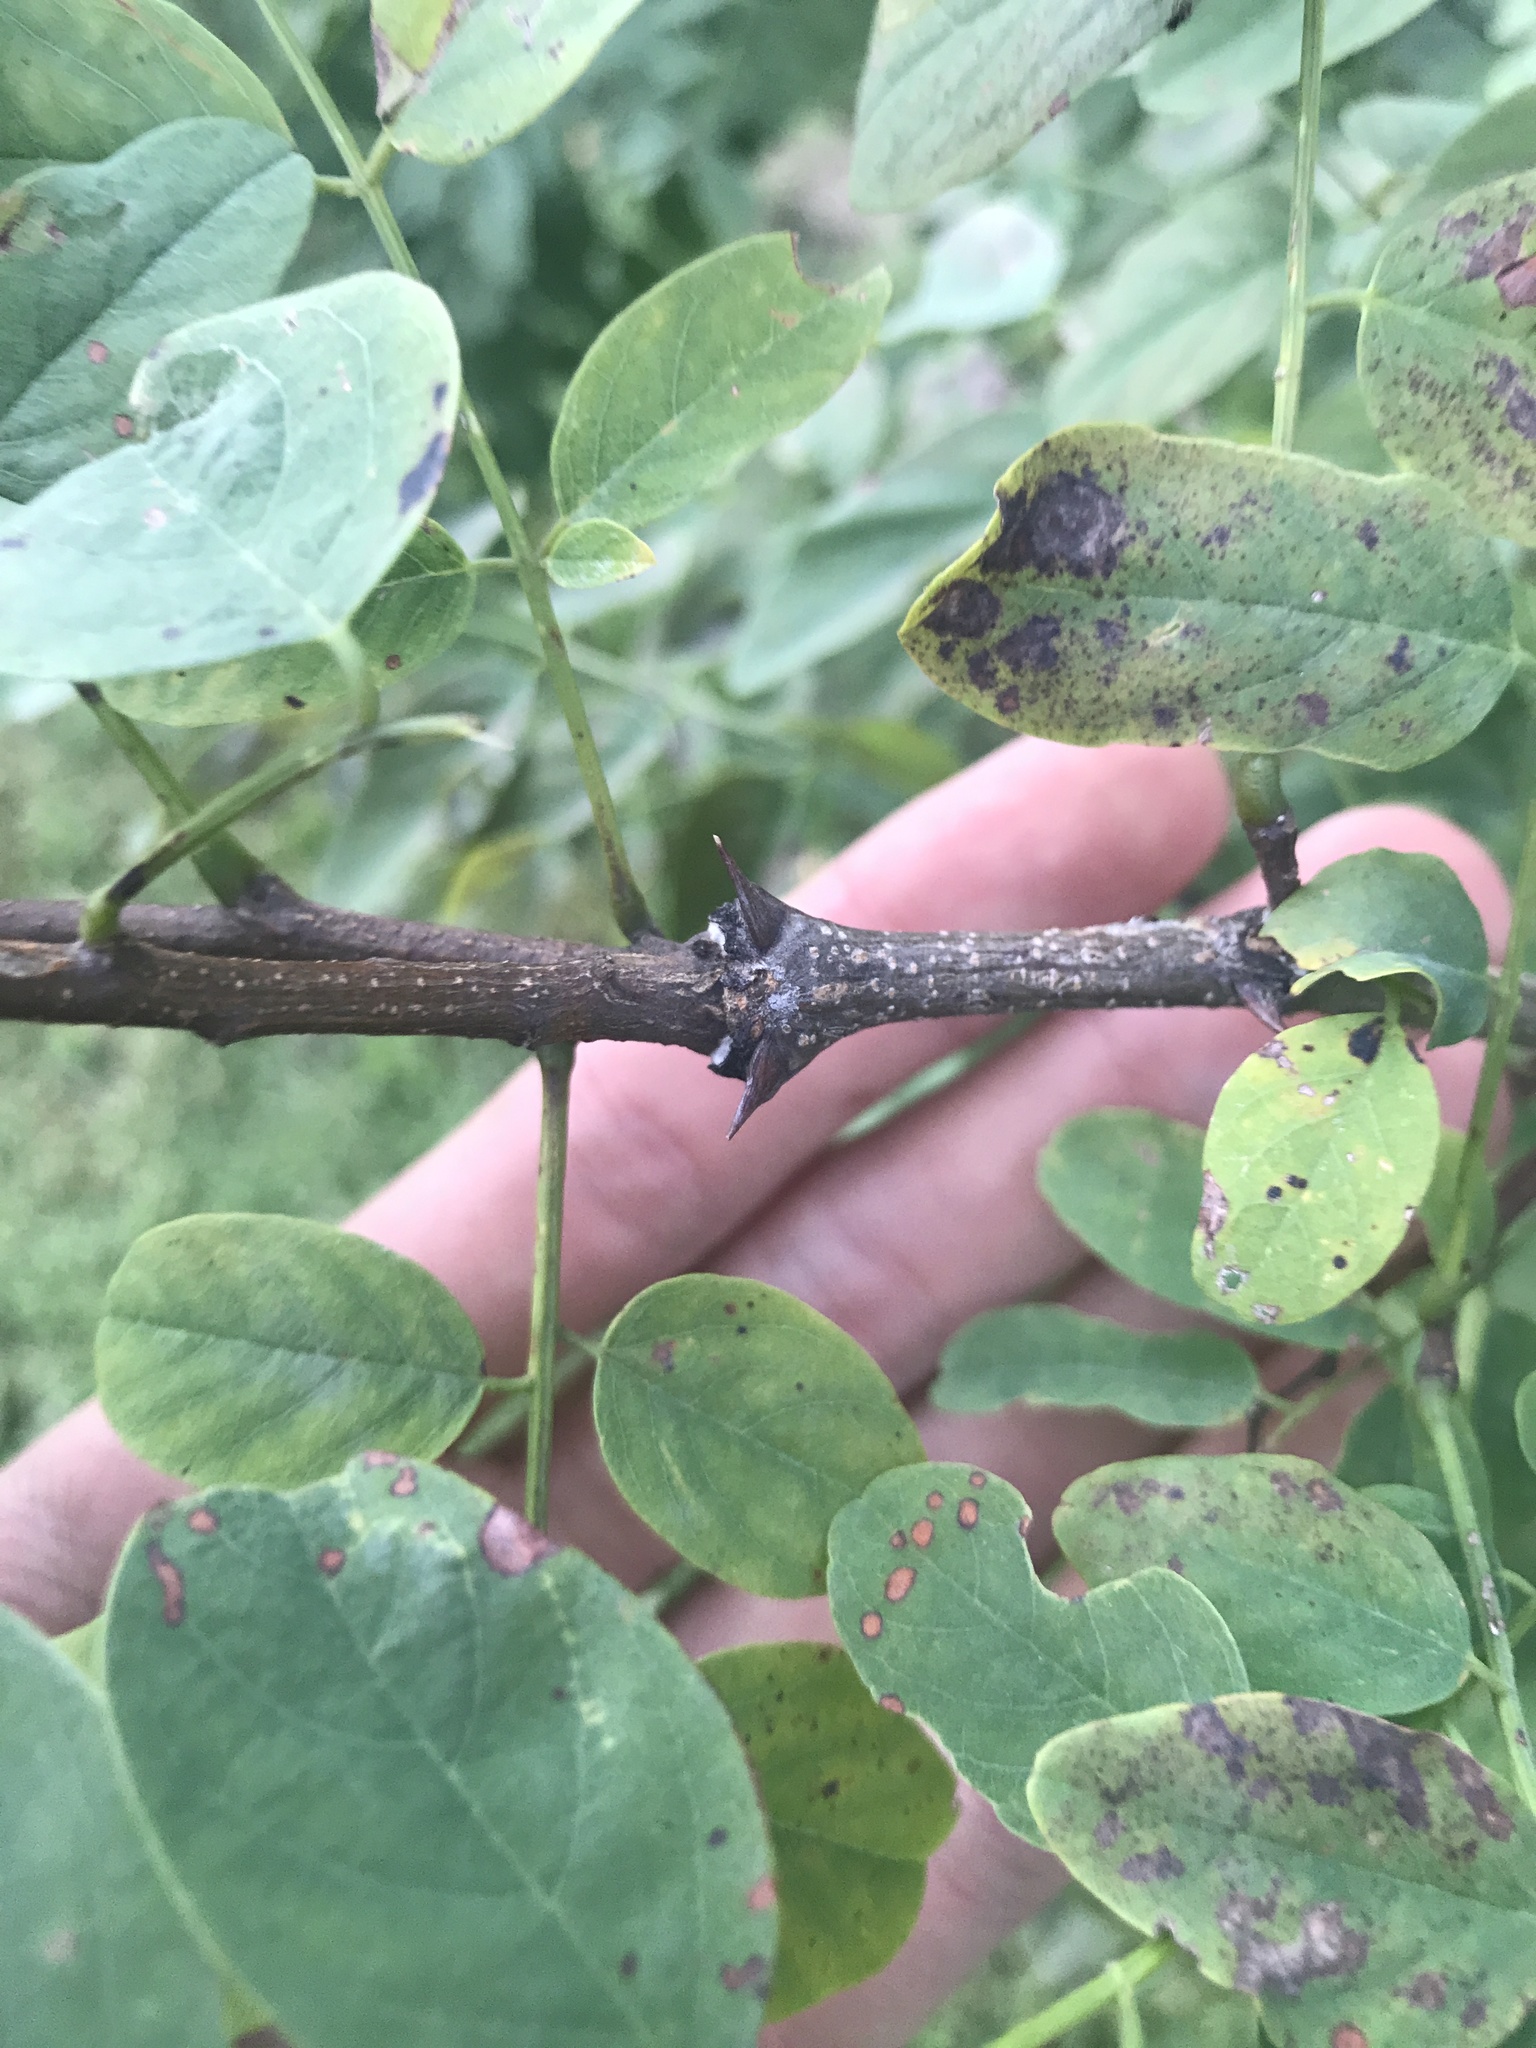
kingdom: Plantae
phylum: Tracheophyta
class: Magnoliopsida
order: Fabales
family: Fabaceae
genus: Robinia
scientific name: Robinia pseudoacacia
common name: Black locust
